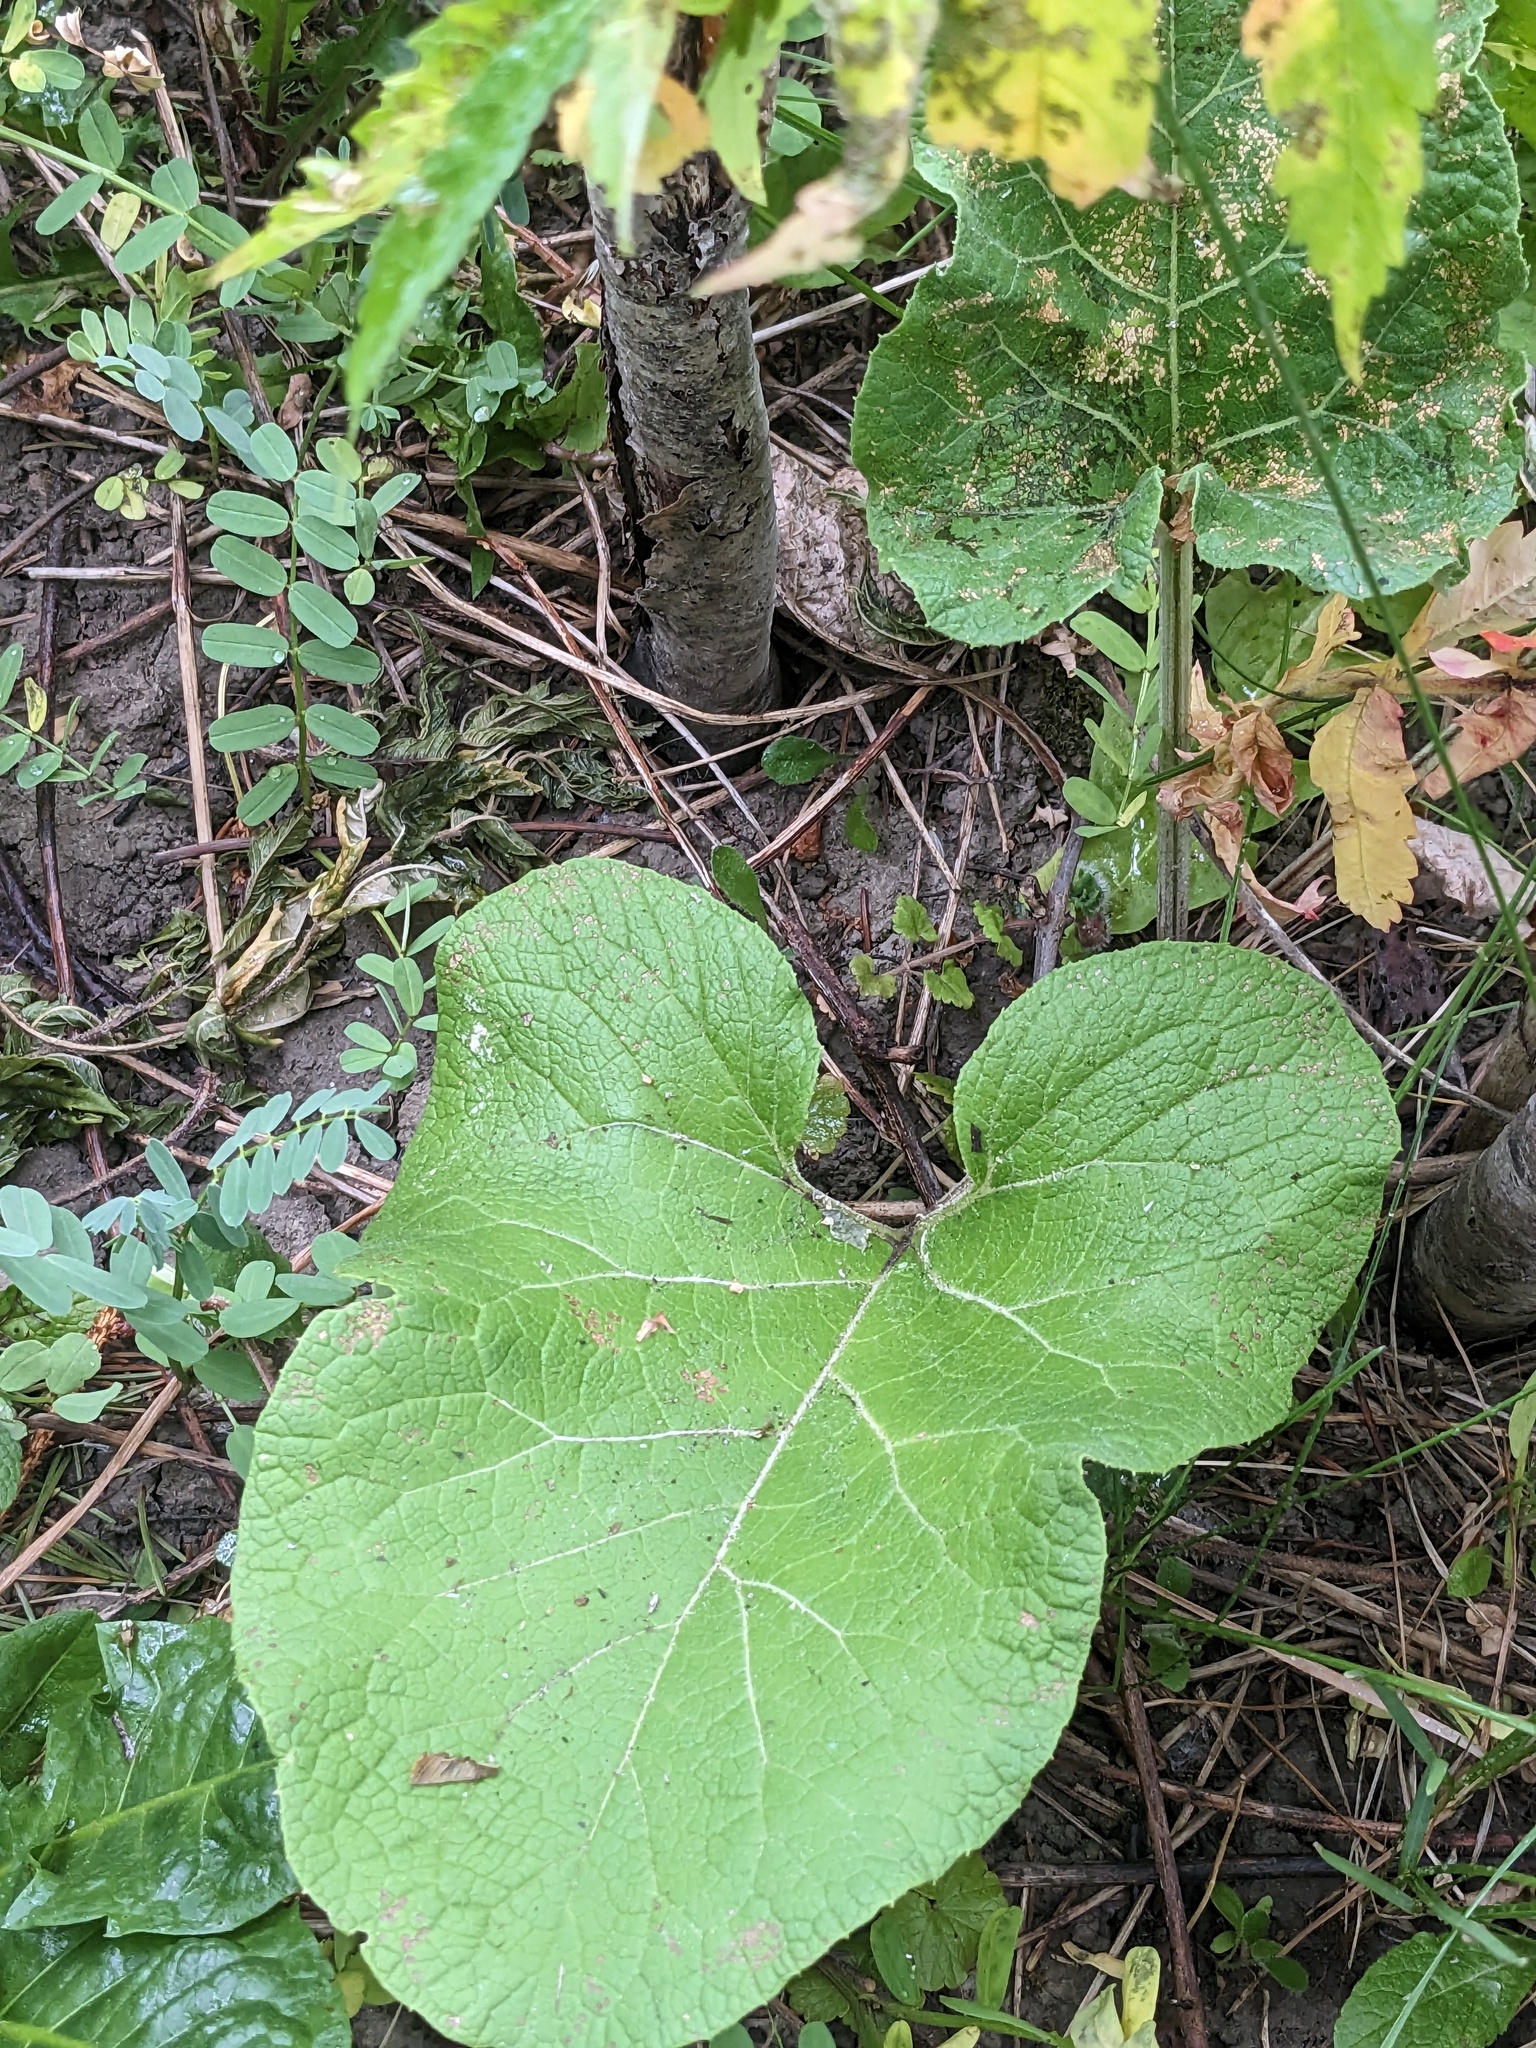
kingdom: Plantae
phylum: Tracheophyta
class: Magnoliopsida
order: Asterales
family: Asteraceae
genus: Arctium
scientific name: Arctium
